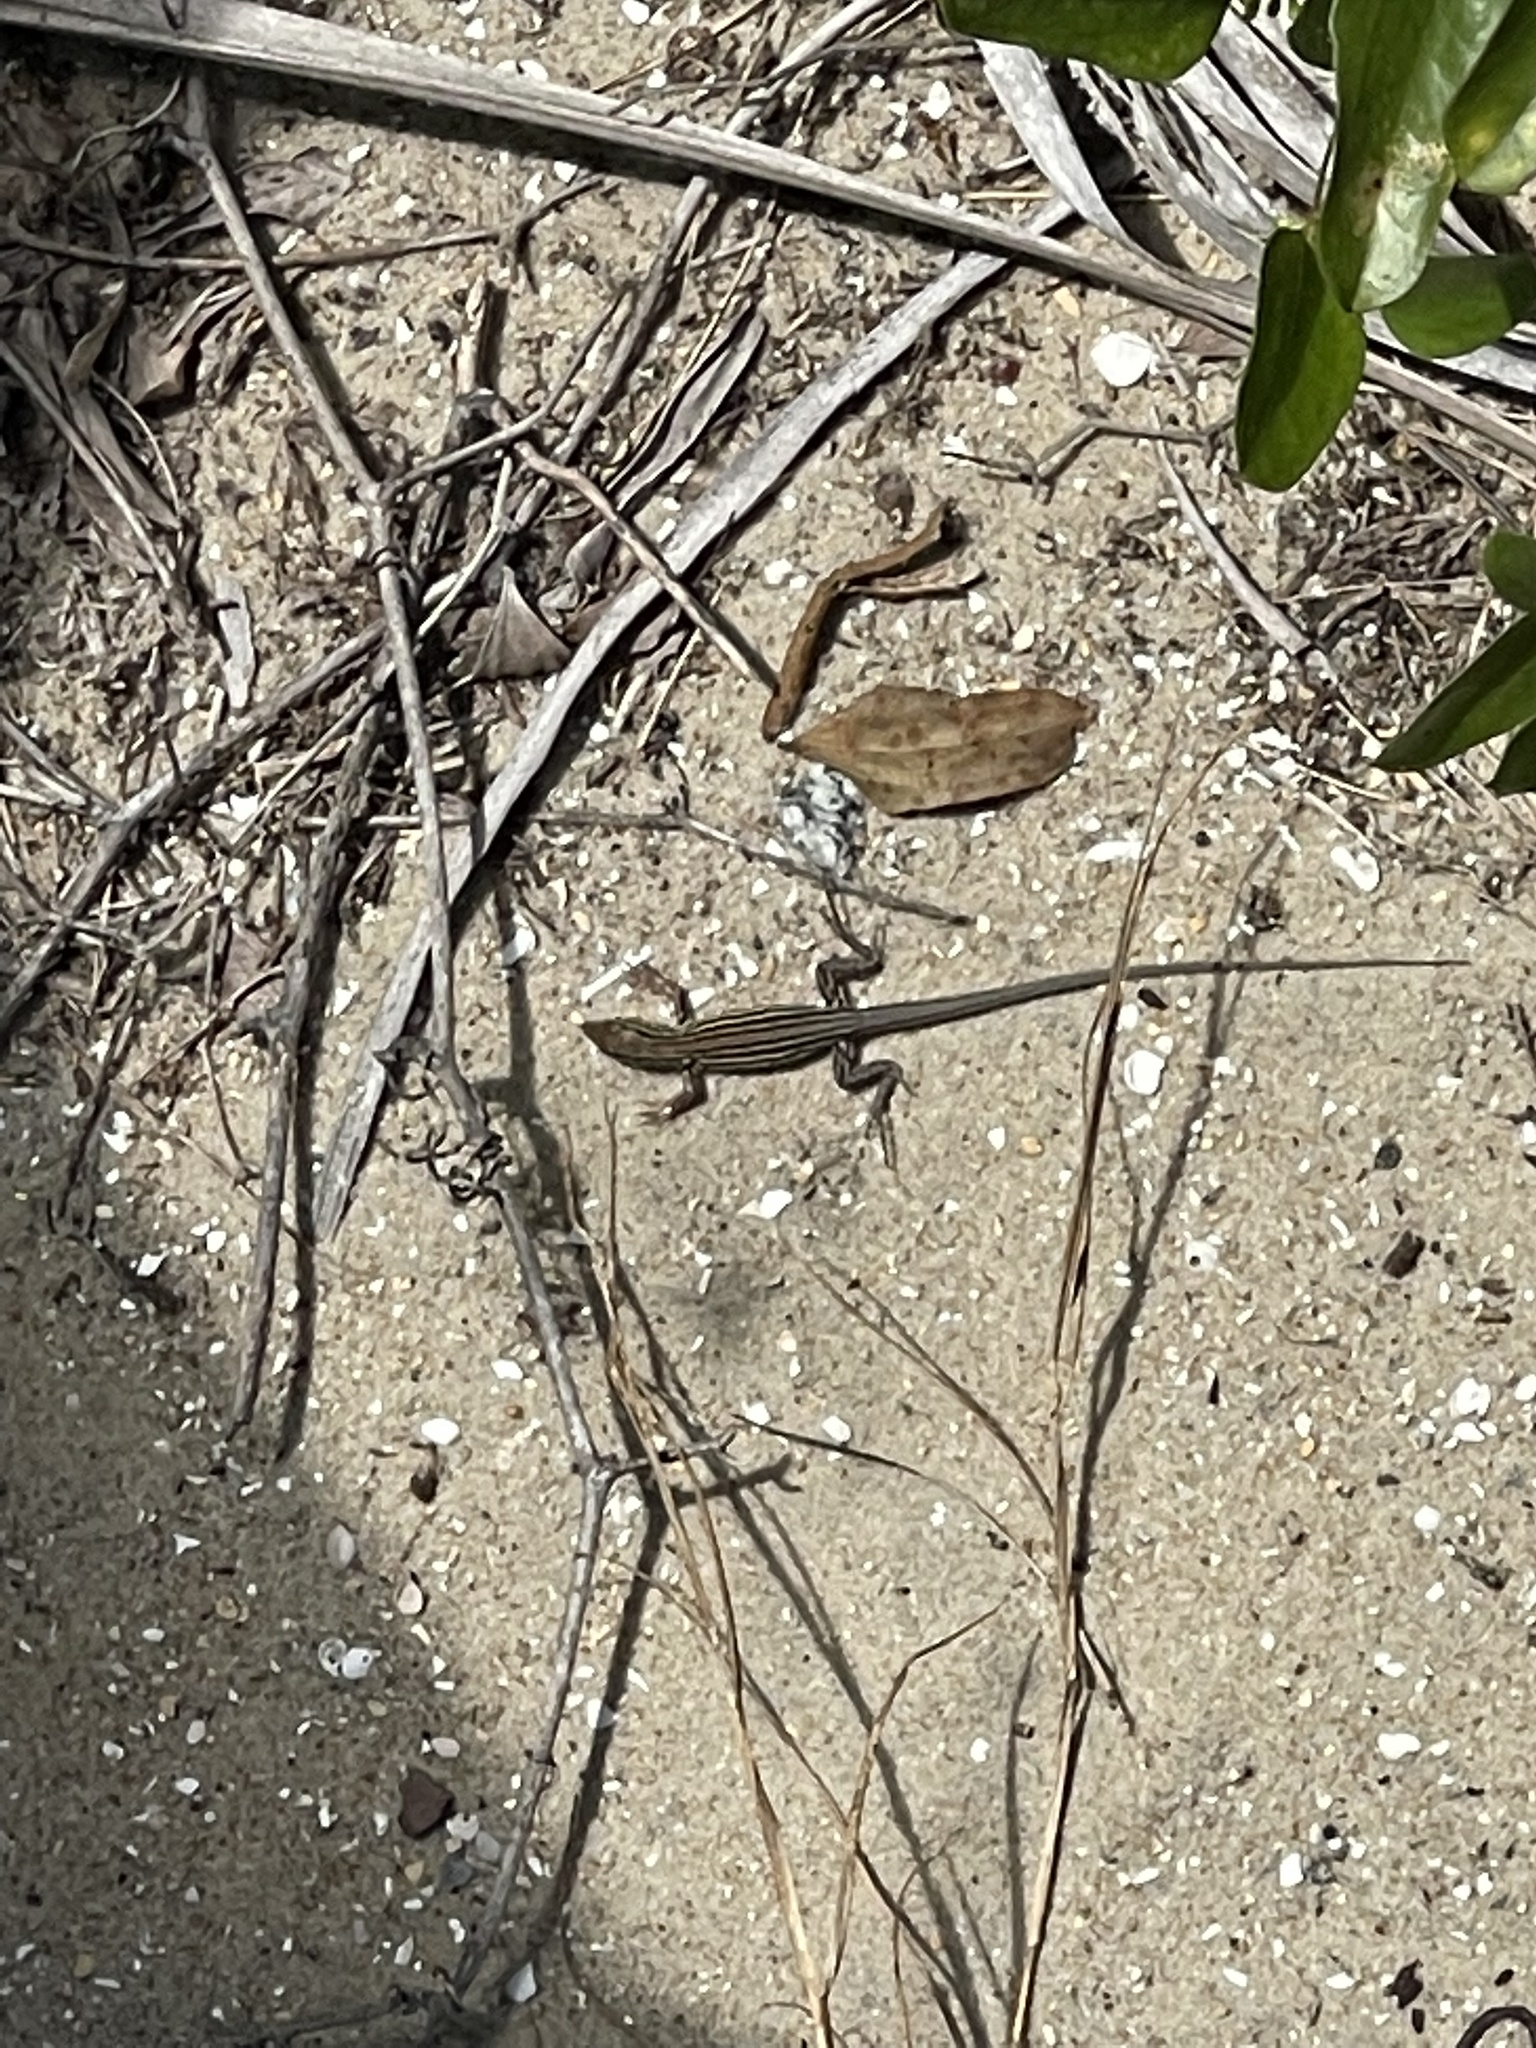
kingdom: Animalia
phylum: Chordata
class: Squamata
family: Teiidae
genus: Aspidoscelis
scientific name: Aspidoscelis sexlineatus
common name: Six-lined racerunner
